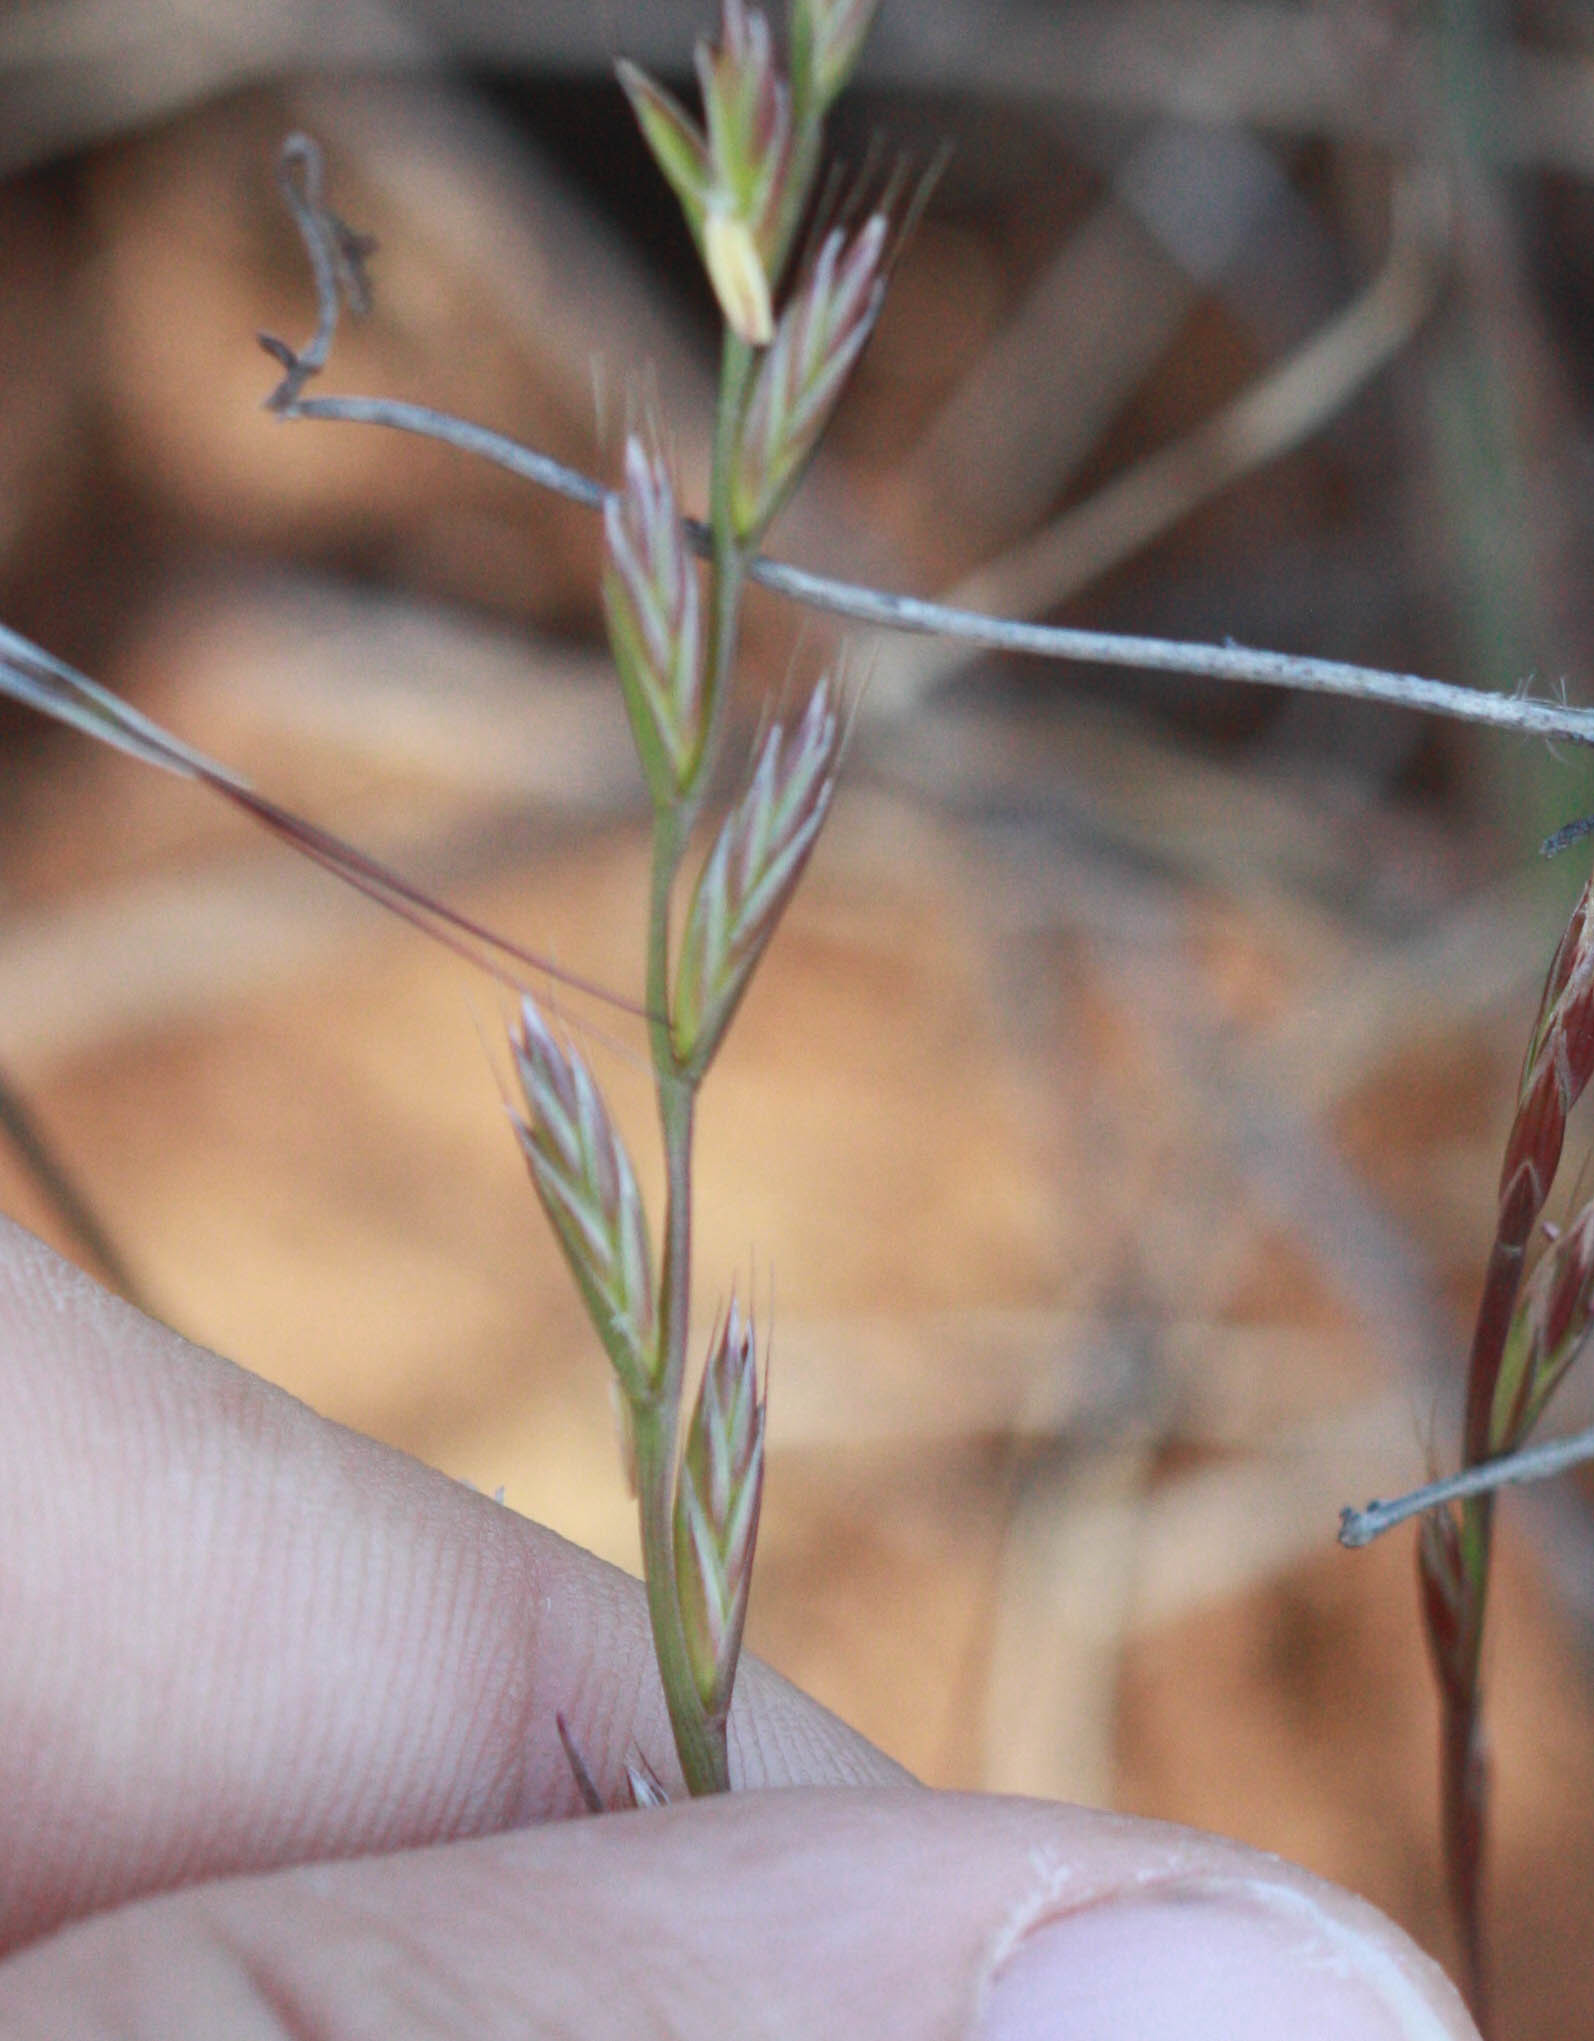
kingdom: Plantae
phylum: Tracheophyta
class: Liliopsida
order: Poales
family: Poaceae
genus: Lolium
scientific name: Lolium multiflorum
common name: Annual ryegrass
